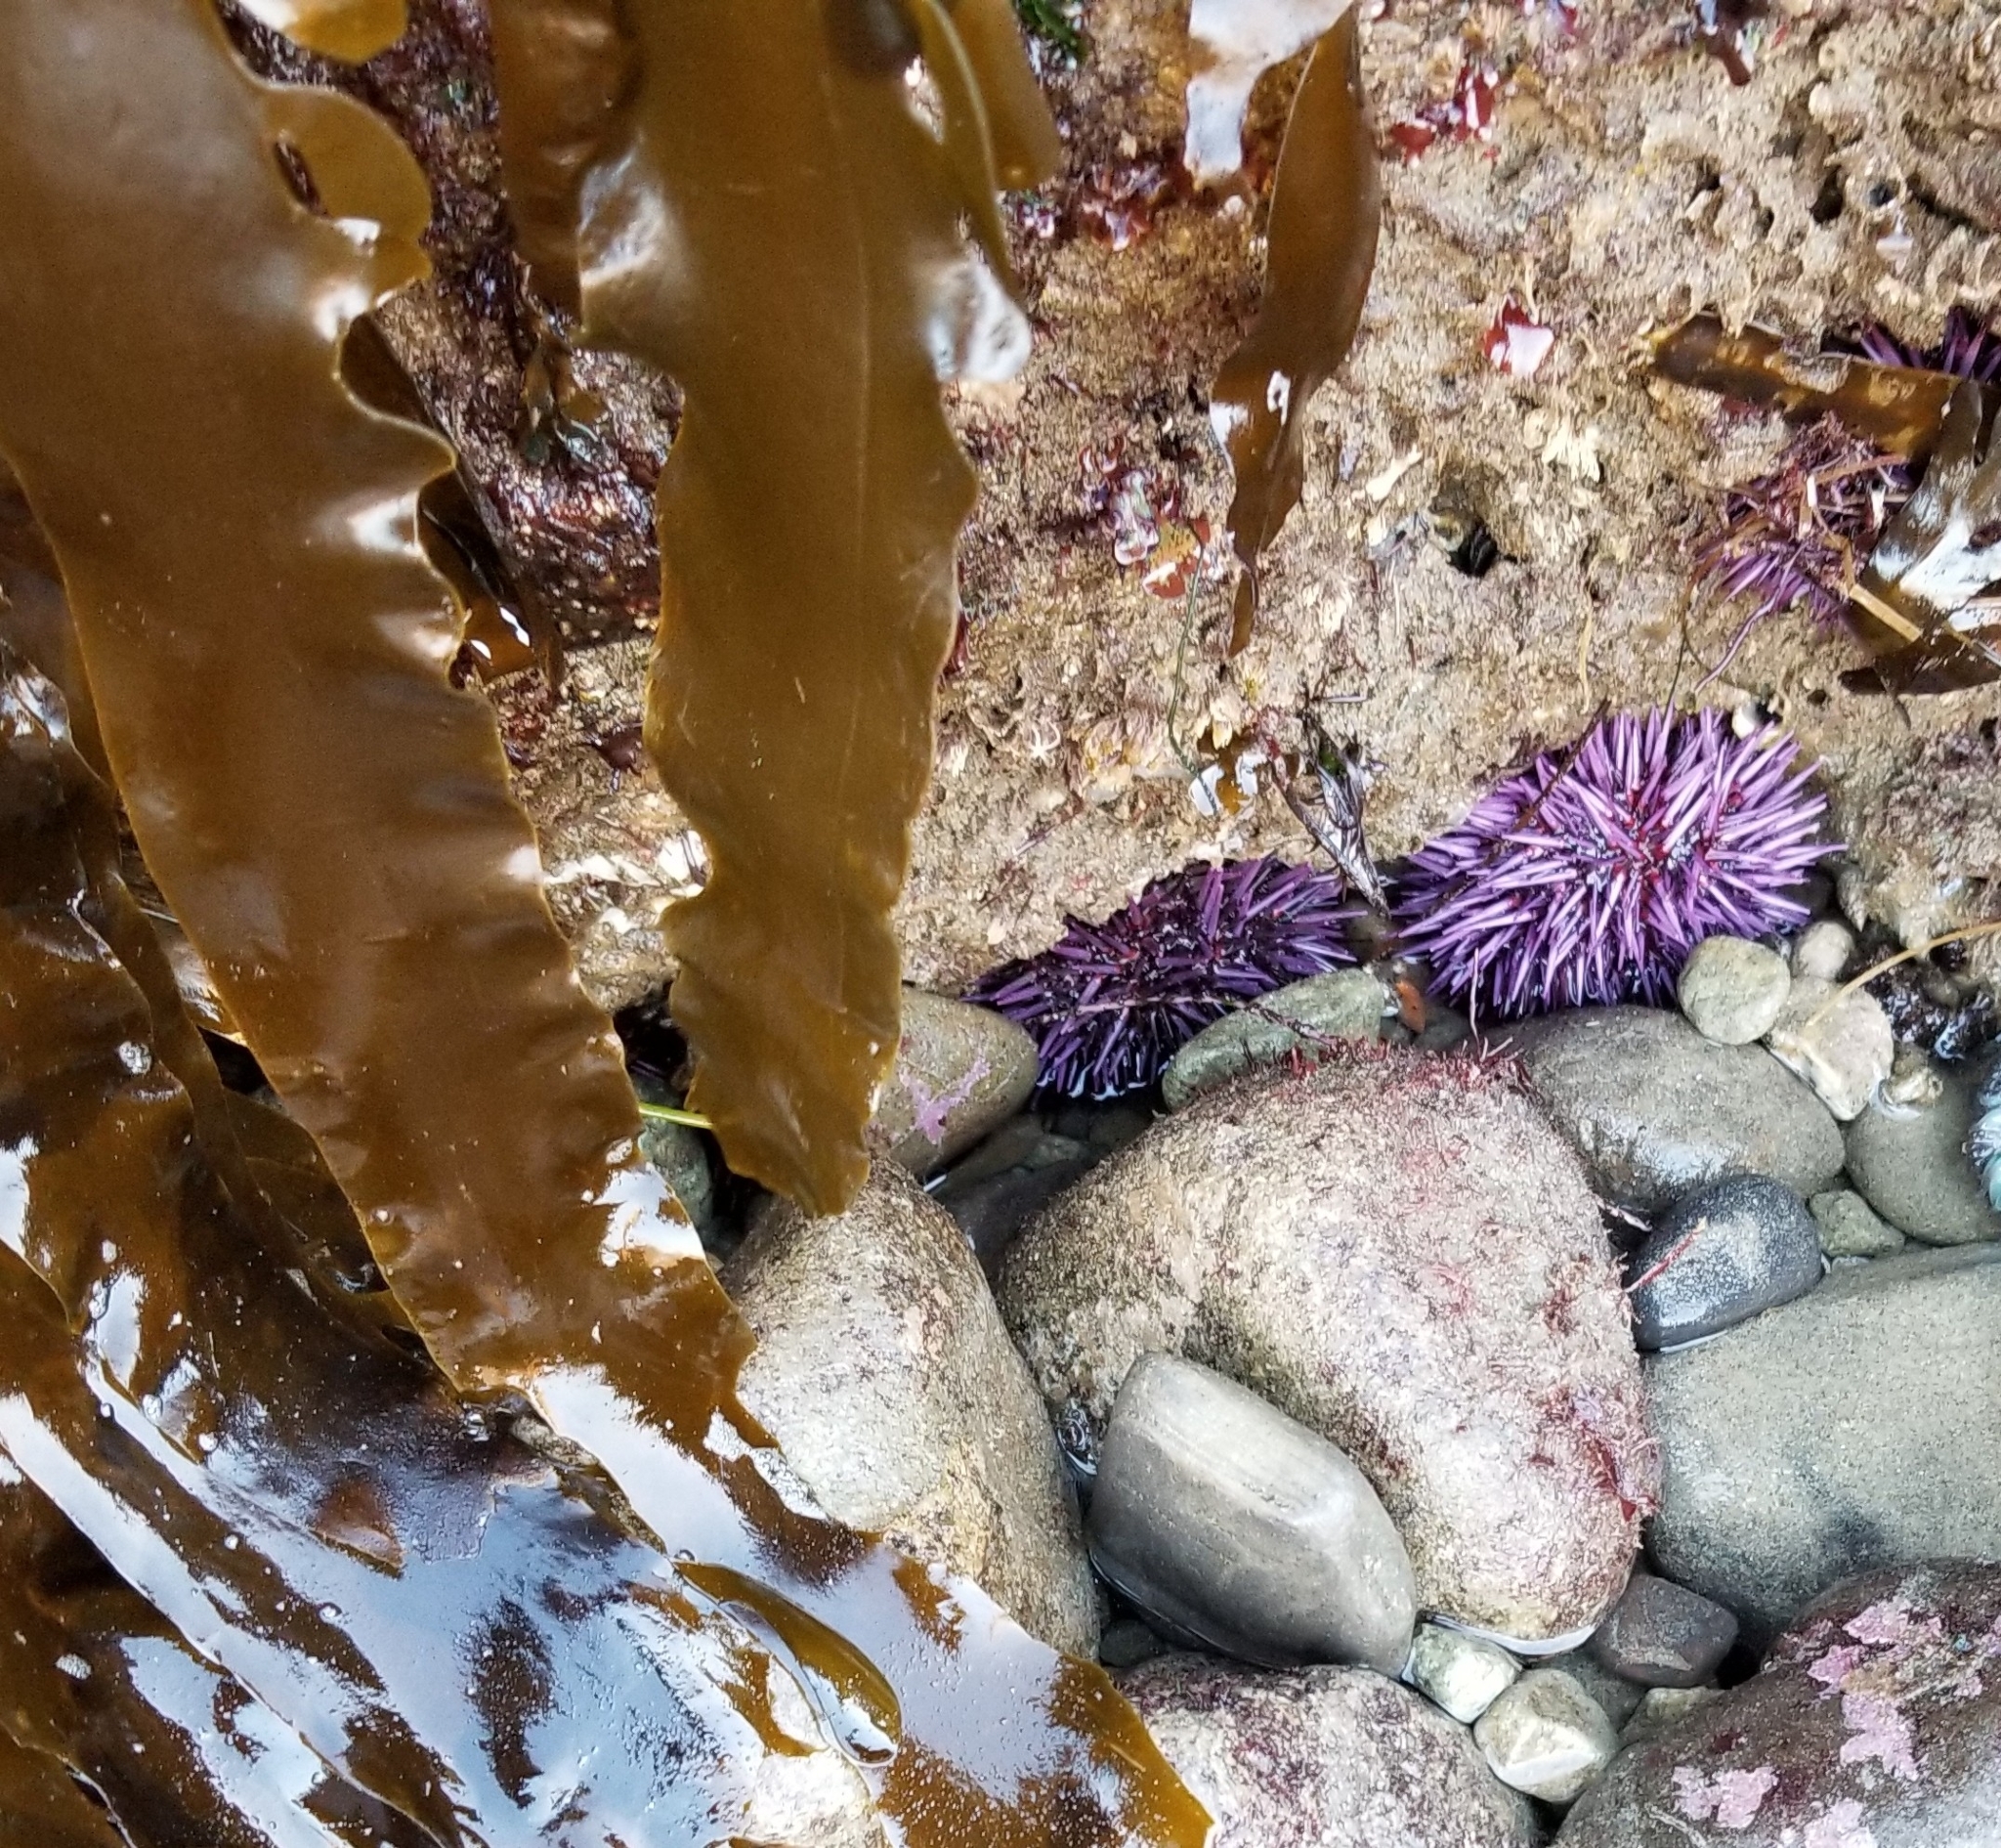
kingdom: Animalia
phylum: Echinodermata
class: Echinoidea
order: Camarodonta
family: Strongylocentrotidae
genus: Strongylocentrotus
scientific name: Strongylocentrotus purpuratus
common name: Purple sea urchin
